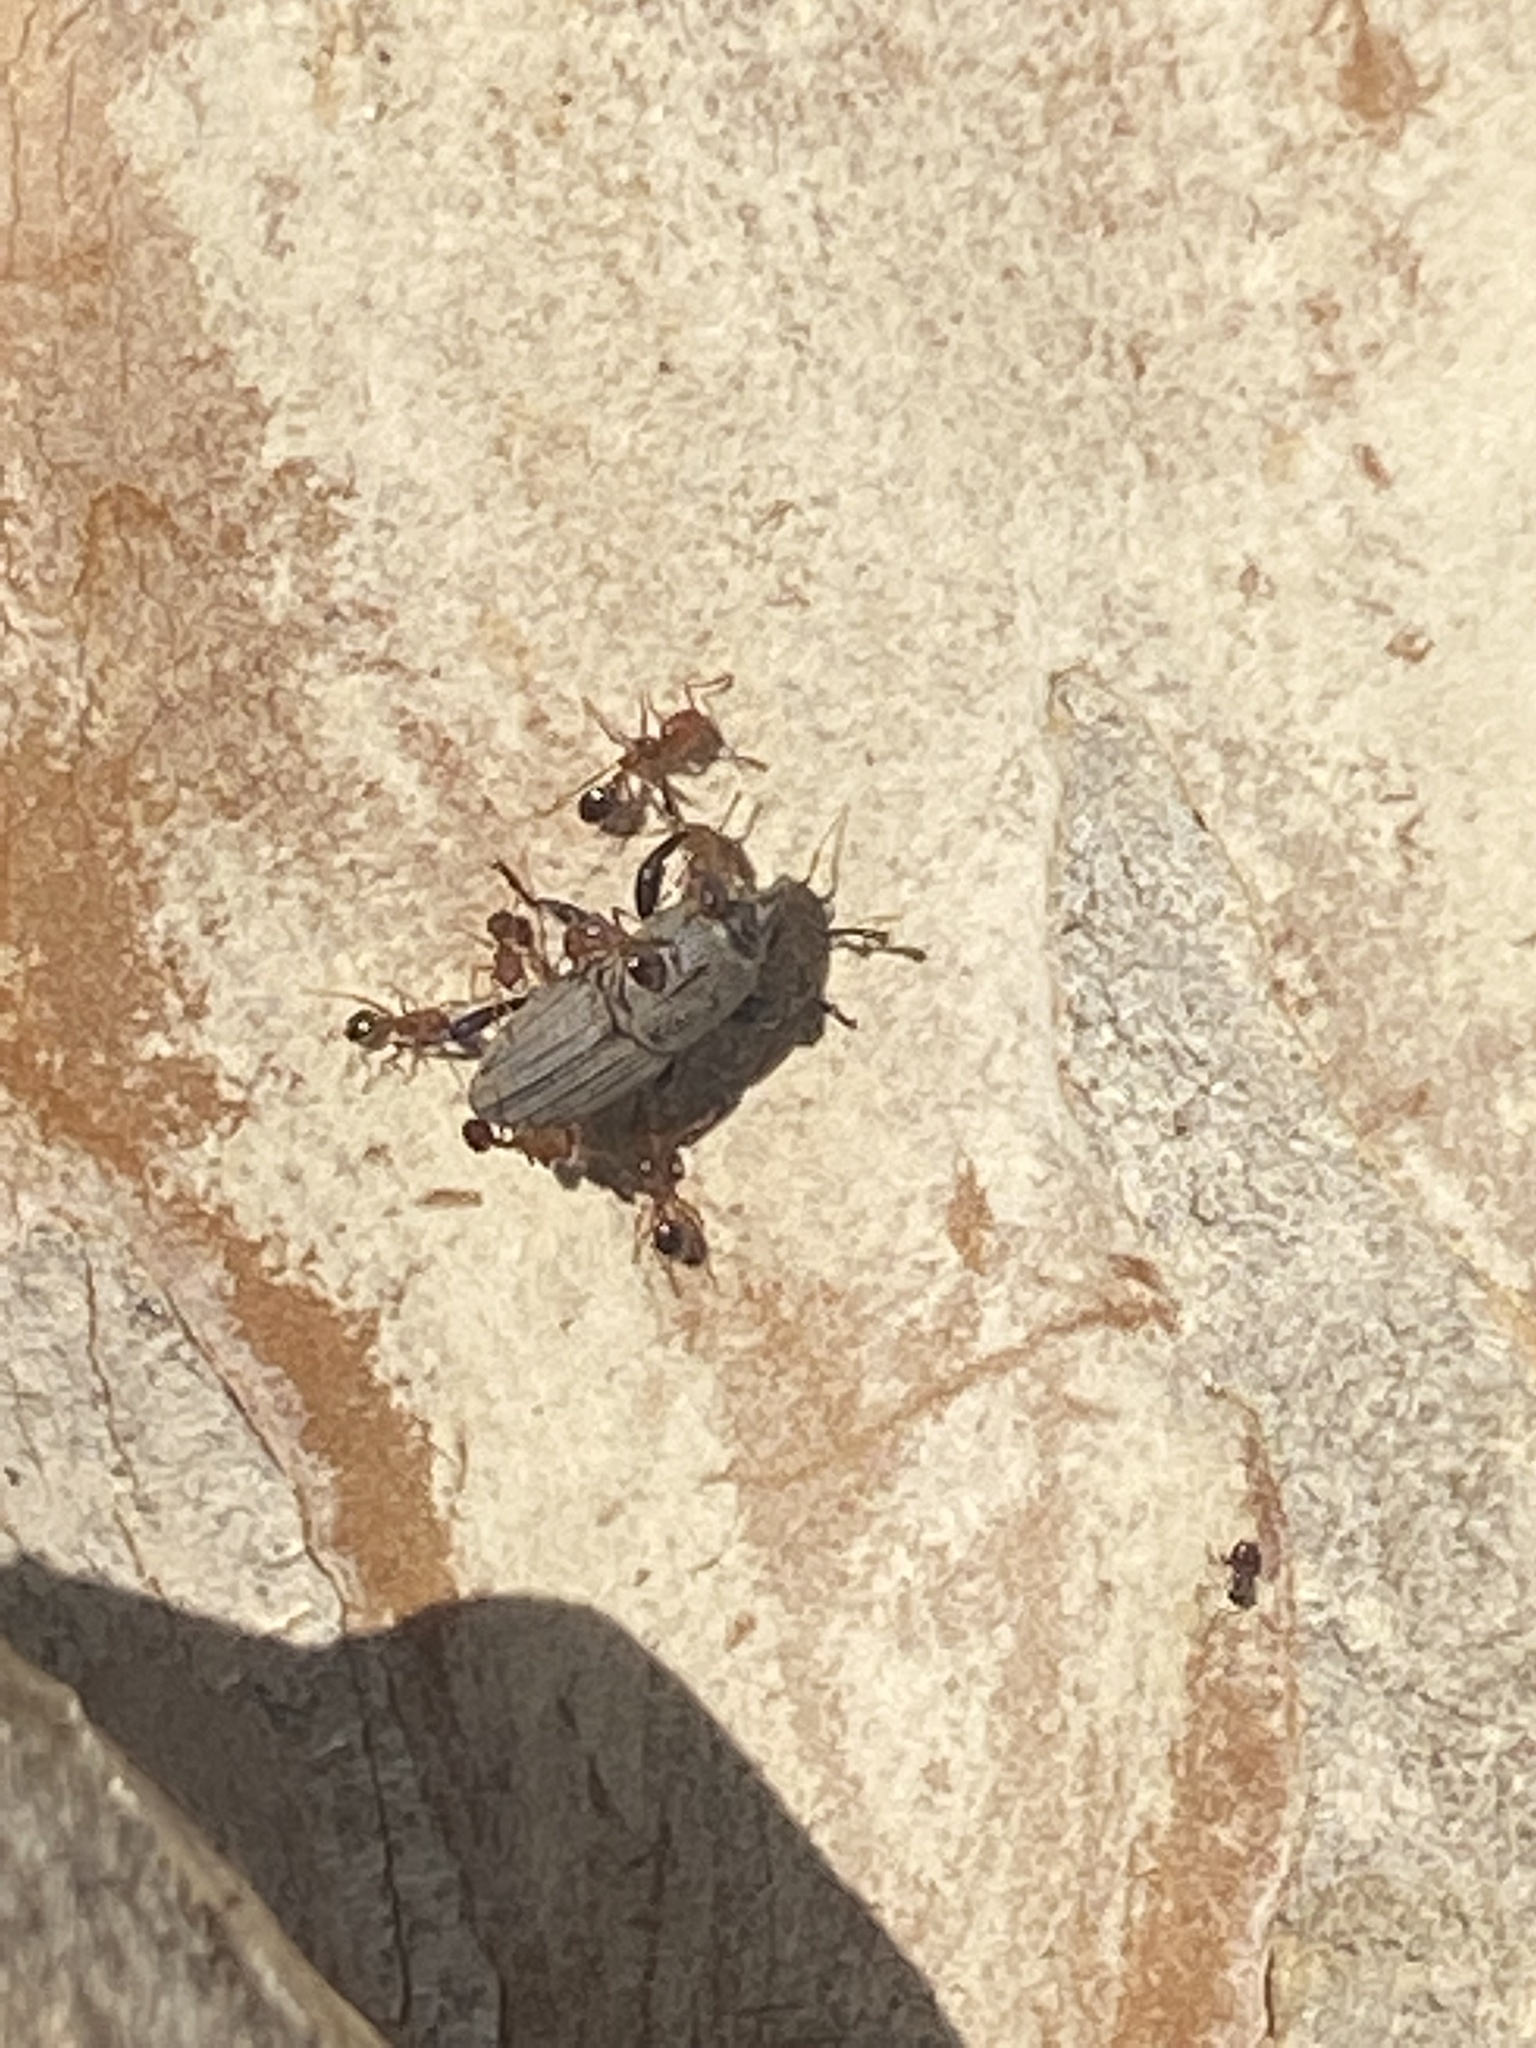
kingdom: Animalia
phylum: Arthropoda
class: Insecta
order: Hymenoptera
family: Formicidae
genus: Solenopsis
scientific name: Solenopsis invicta
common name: Red imported fire ant
